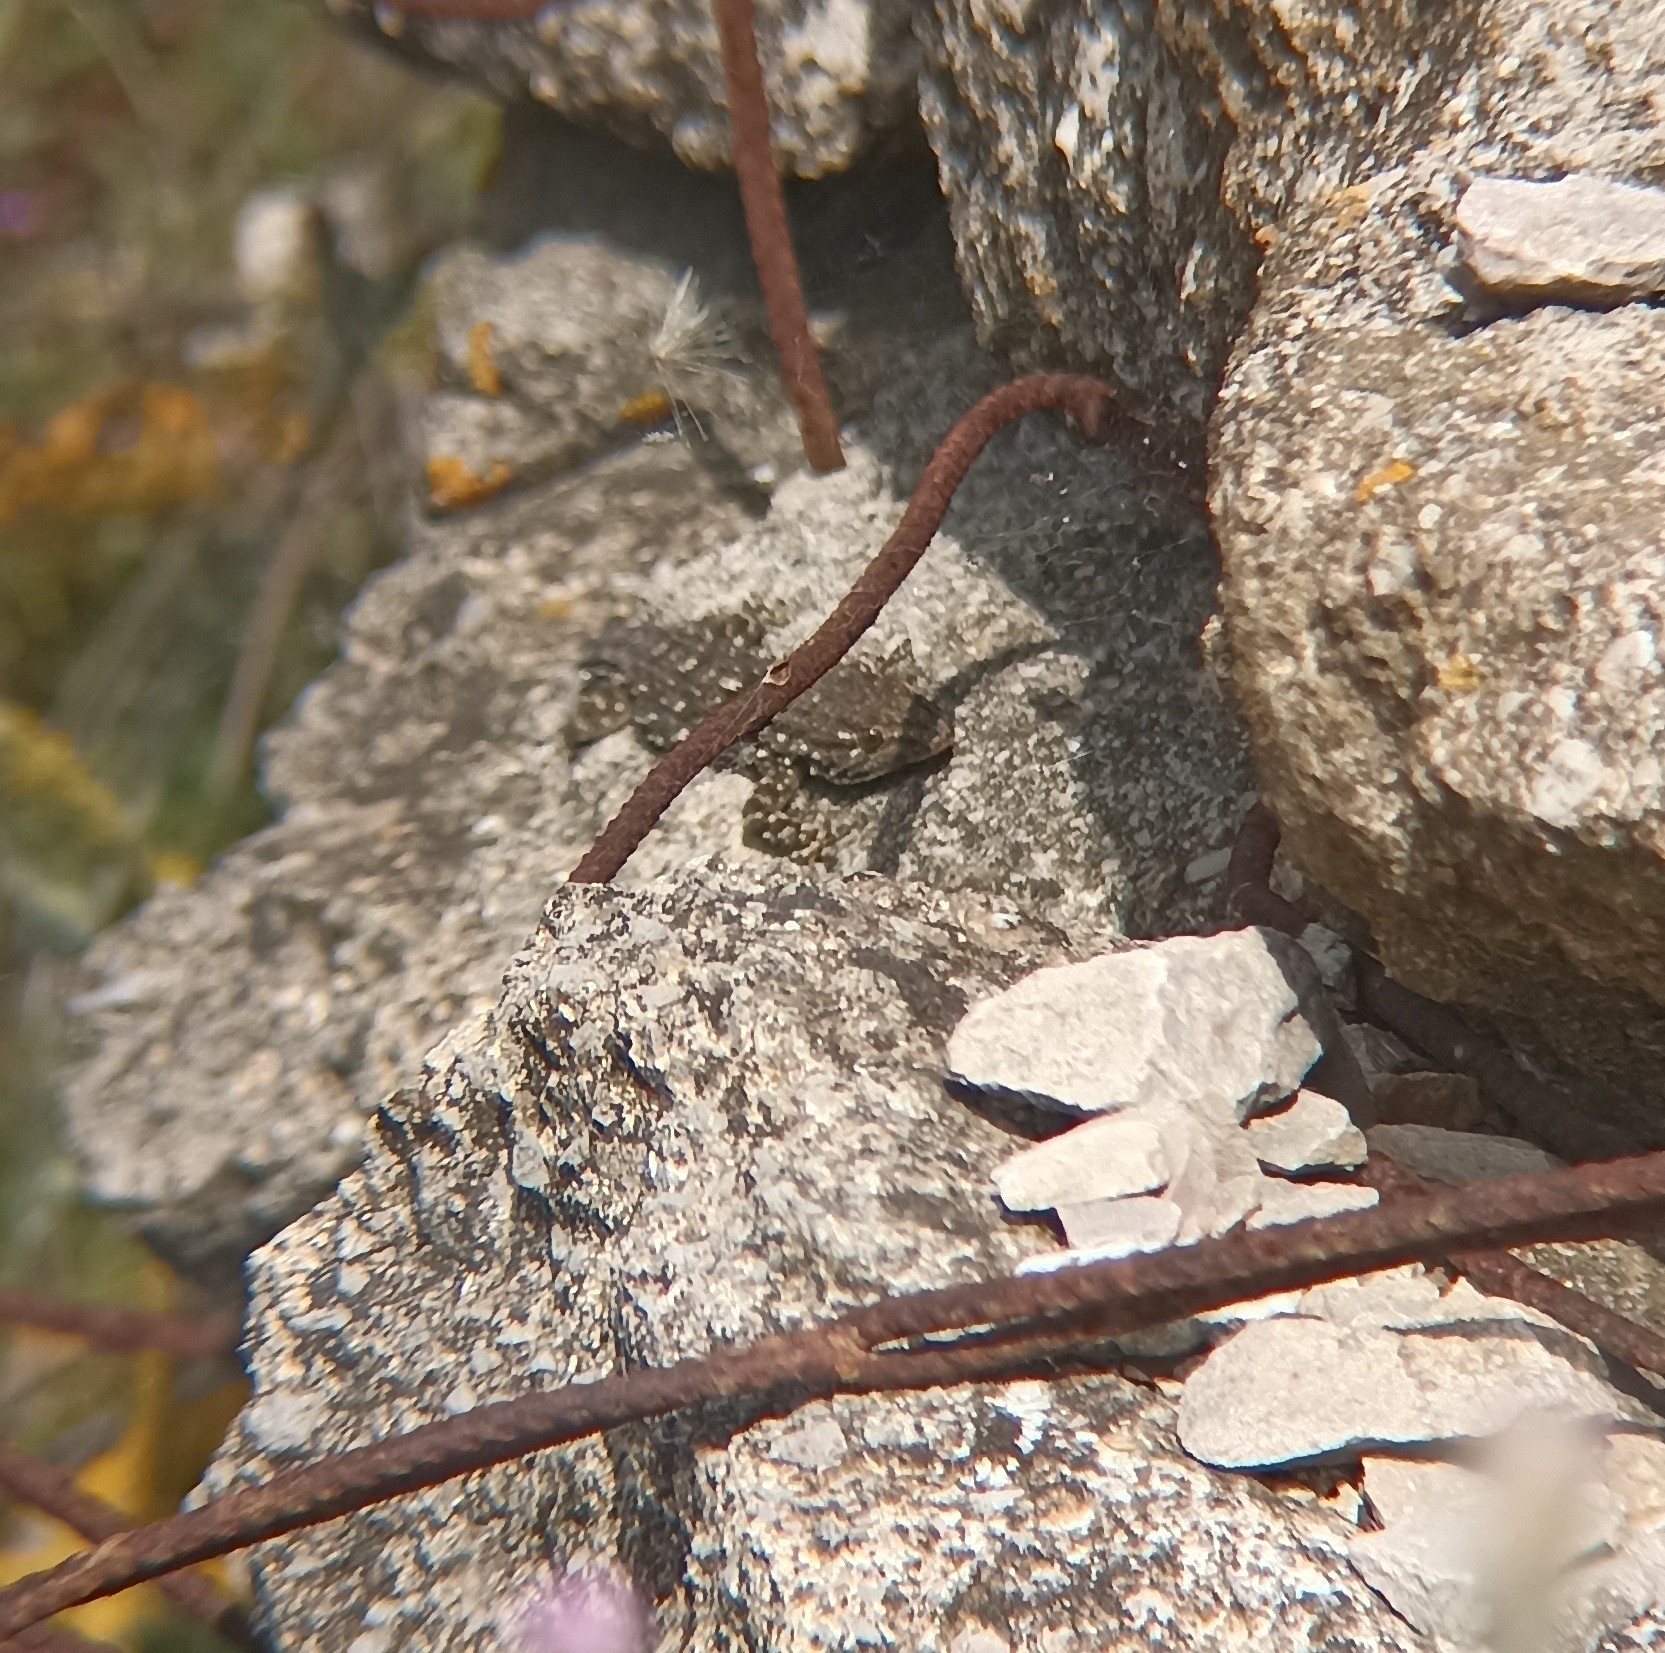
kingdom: Animalia
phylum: Chordata
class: Squamata
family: Phyllodactylidae
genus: Tarentola
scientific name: Tarentola mauritanica
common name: Moorish gecko
